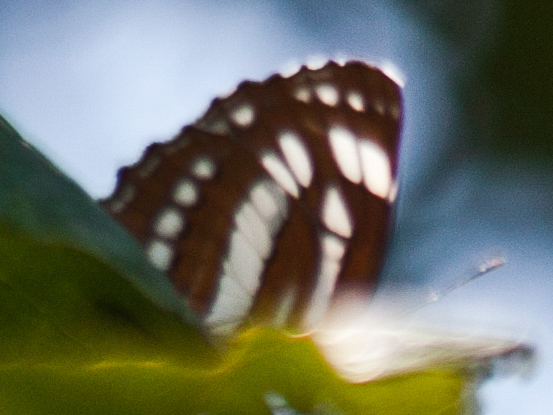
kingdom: Animalia
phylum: Arthropoda
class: Insecta
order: Lepidoptera
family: Nymphalidae
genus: Neptis
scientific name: Neptis hylas
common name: Common sailer
